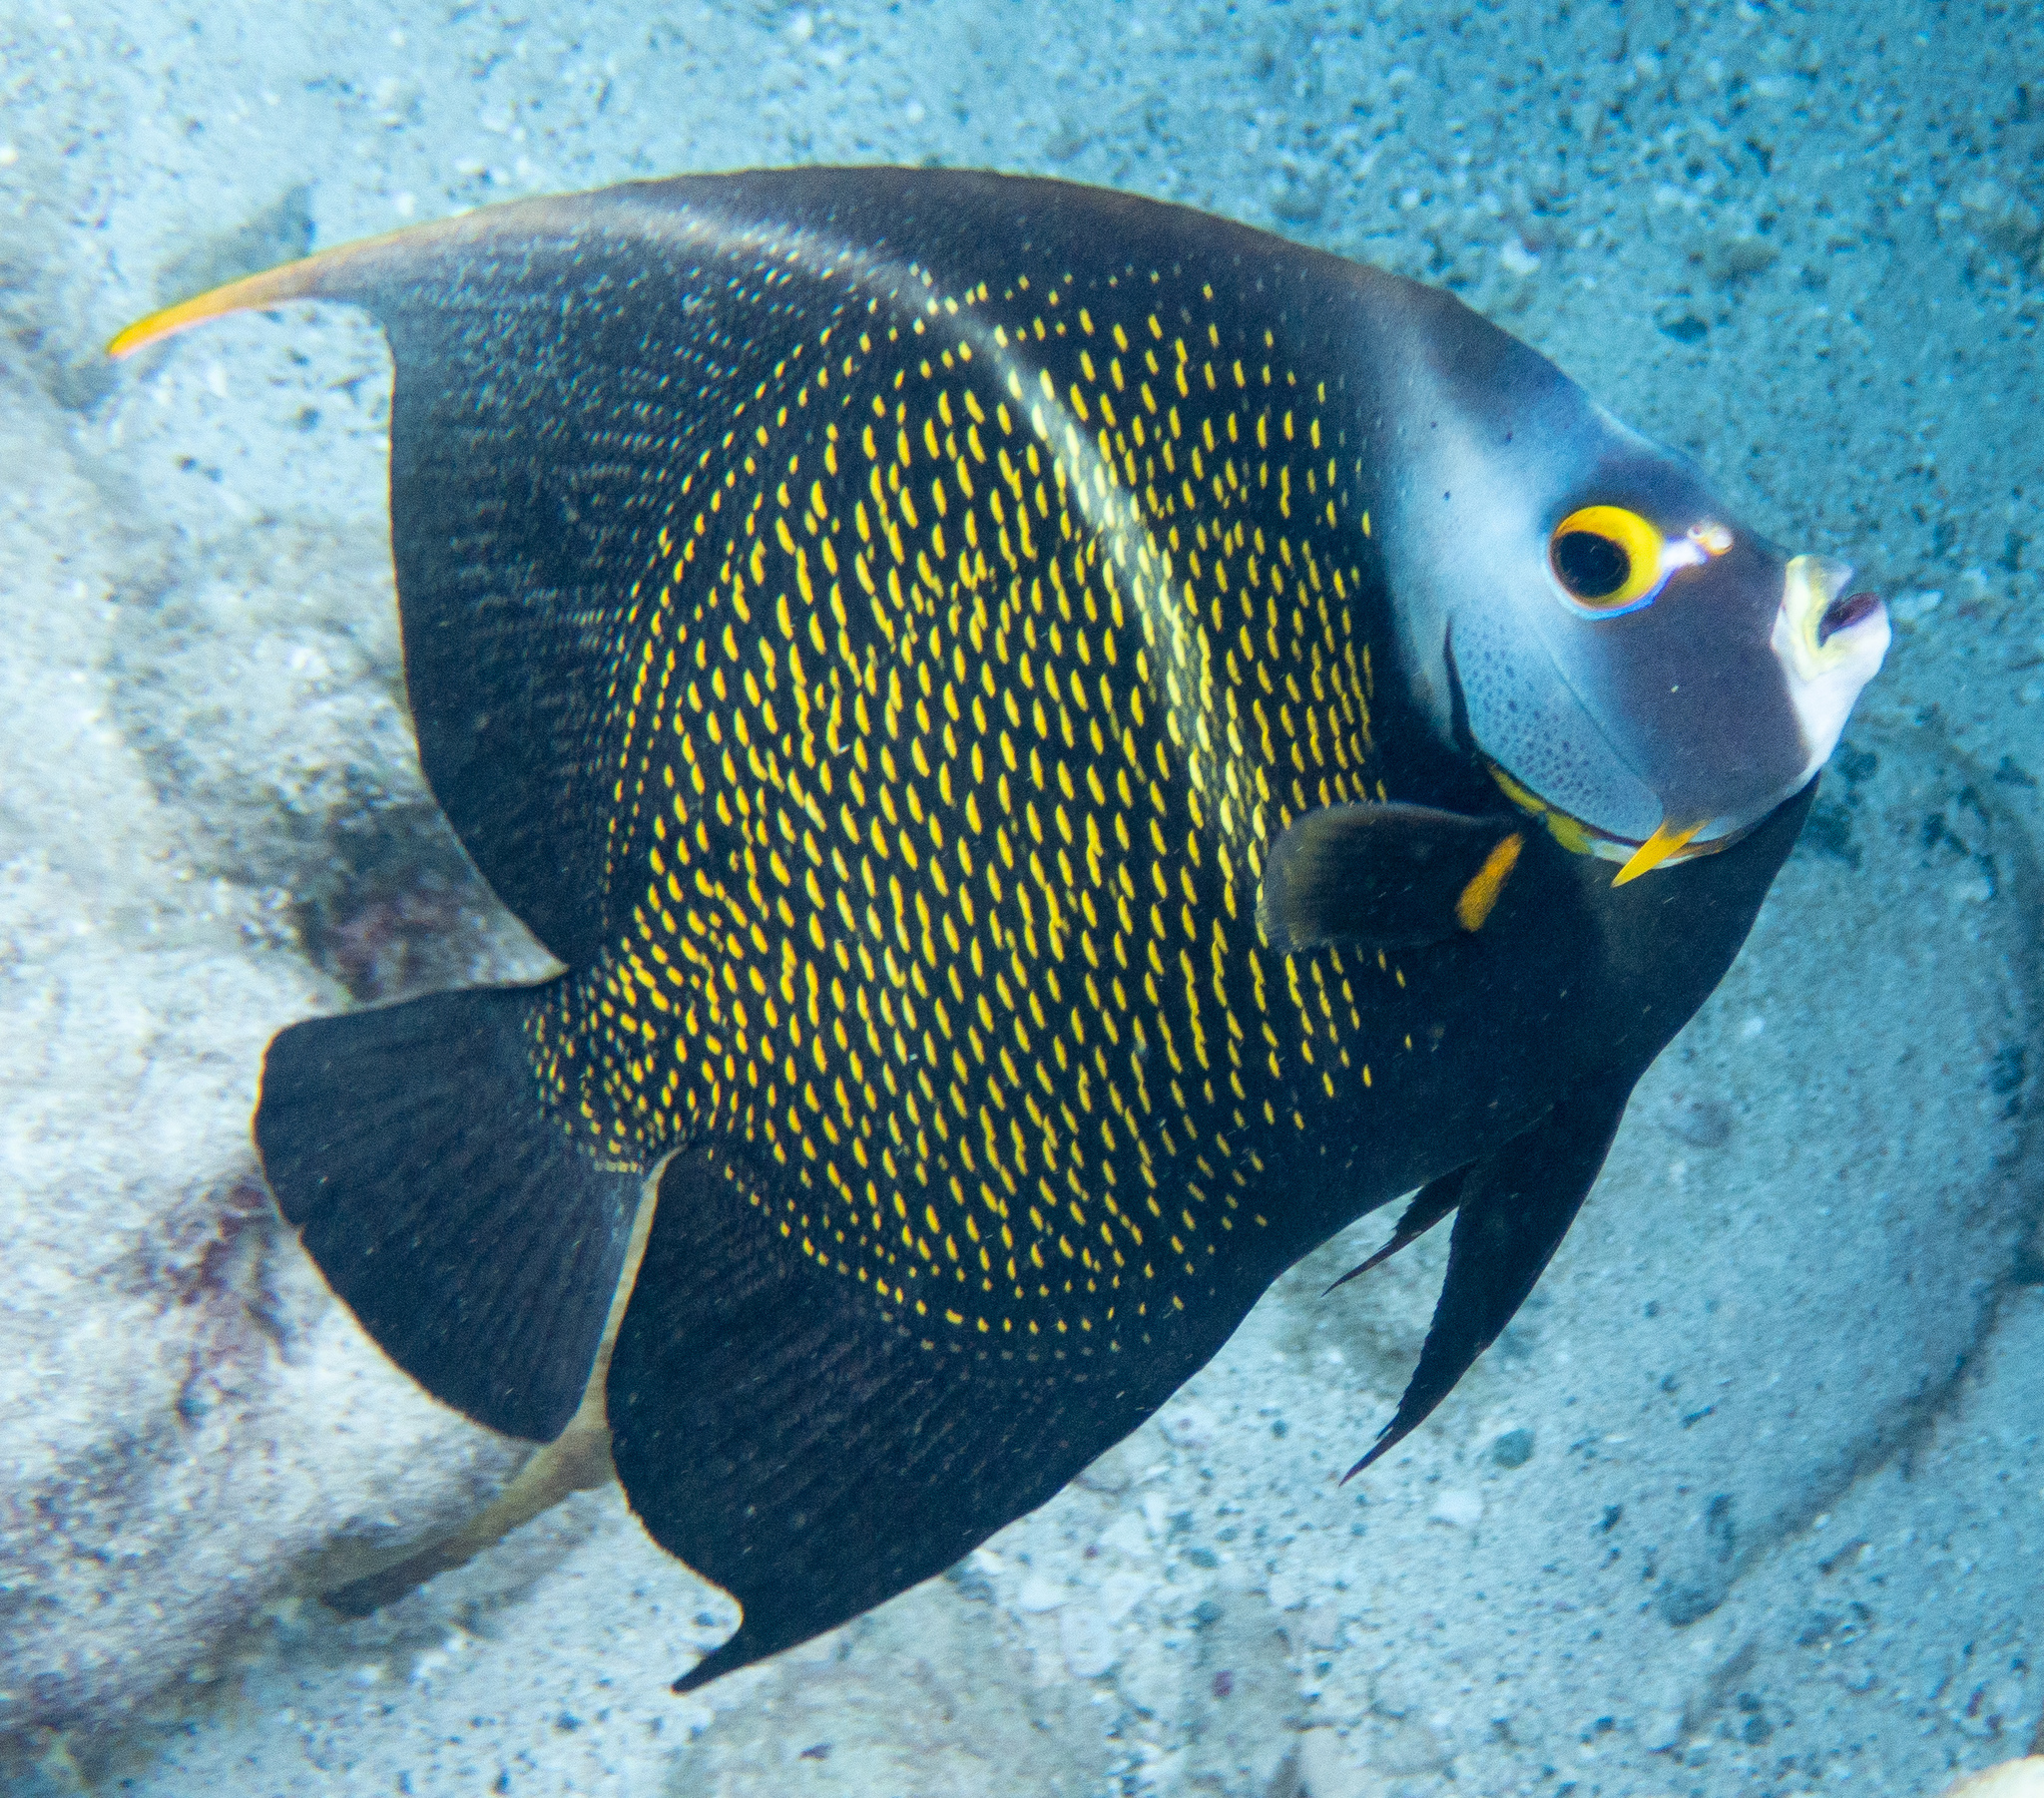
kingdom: Animalia
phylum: Chordata
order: Perciformes
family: Pomacanthidae
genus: Pomacanthus
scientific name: Pomacanthus paru
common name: French angelfish
